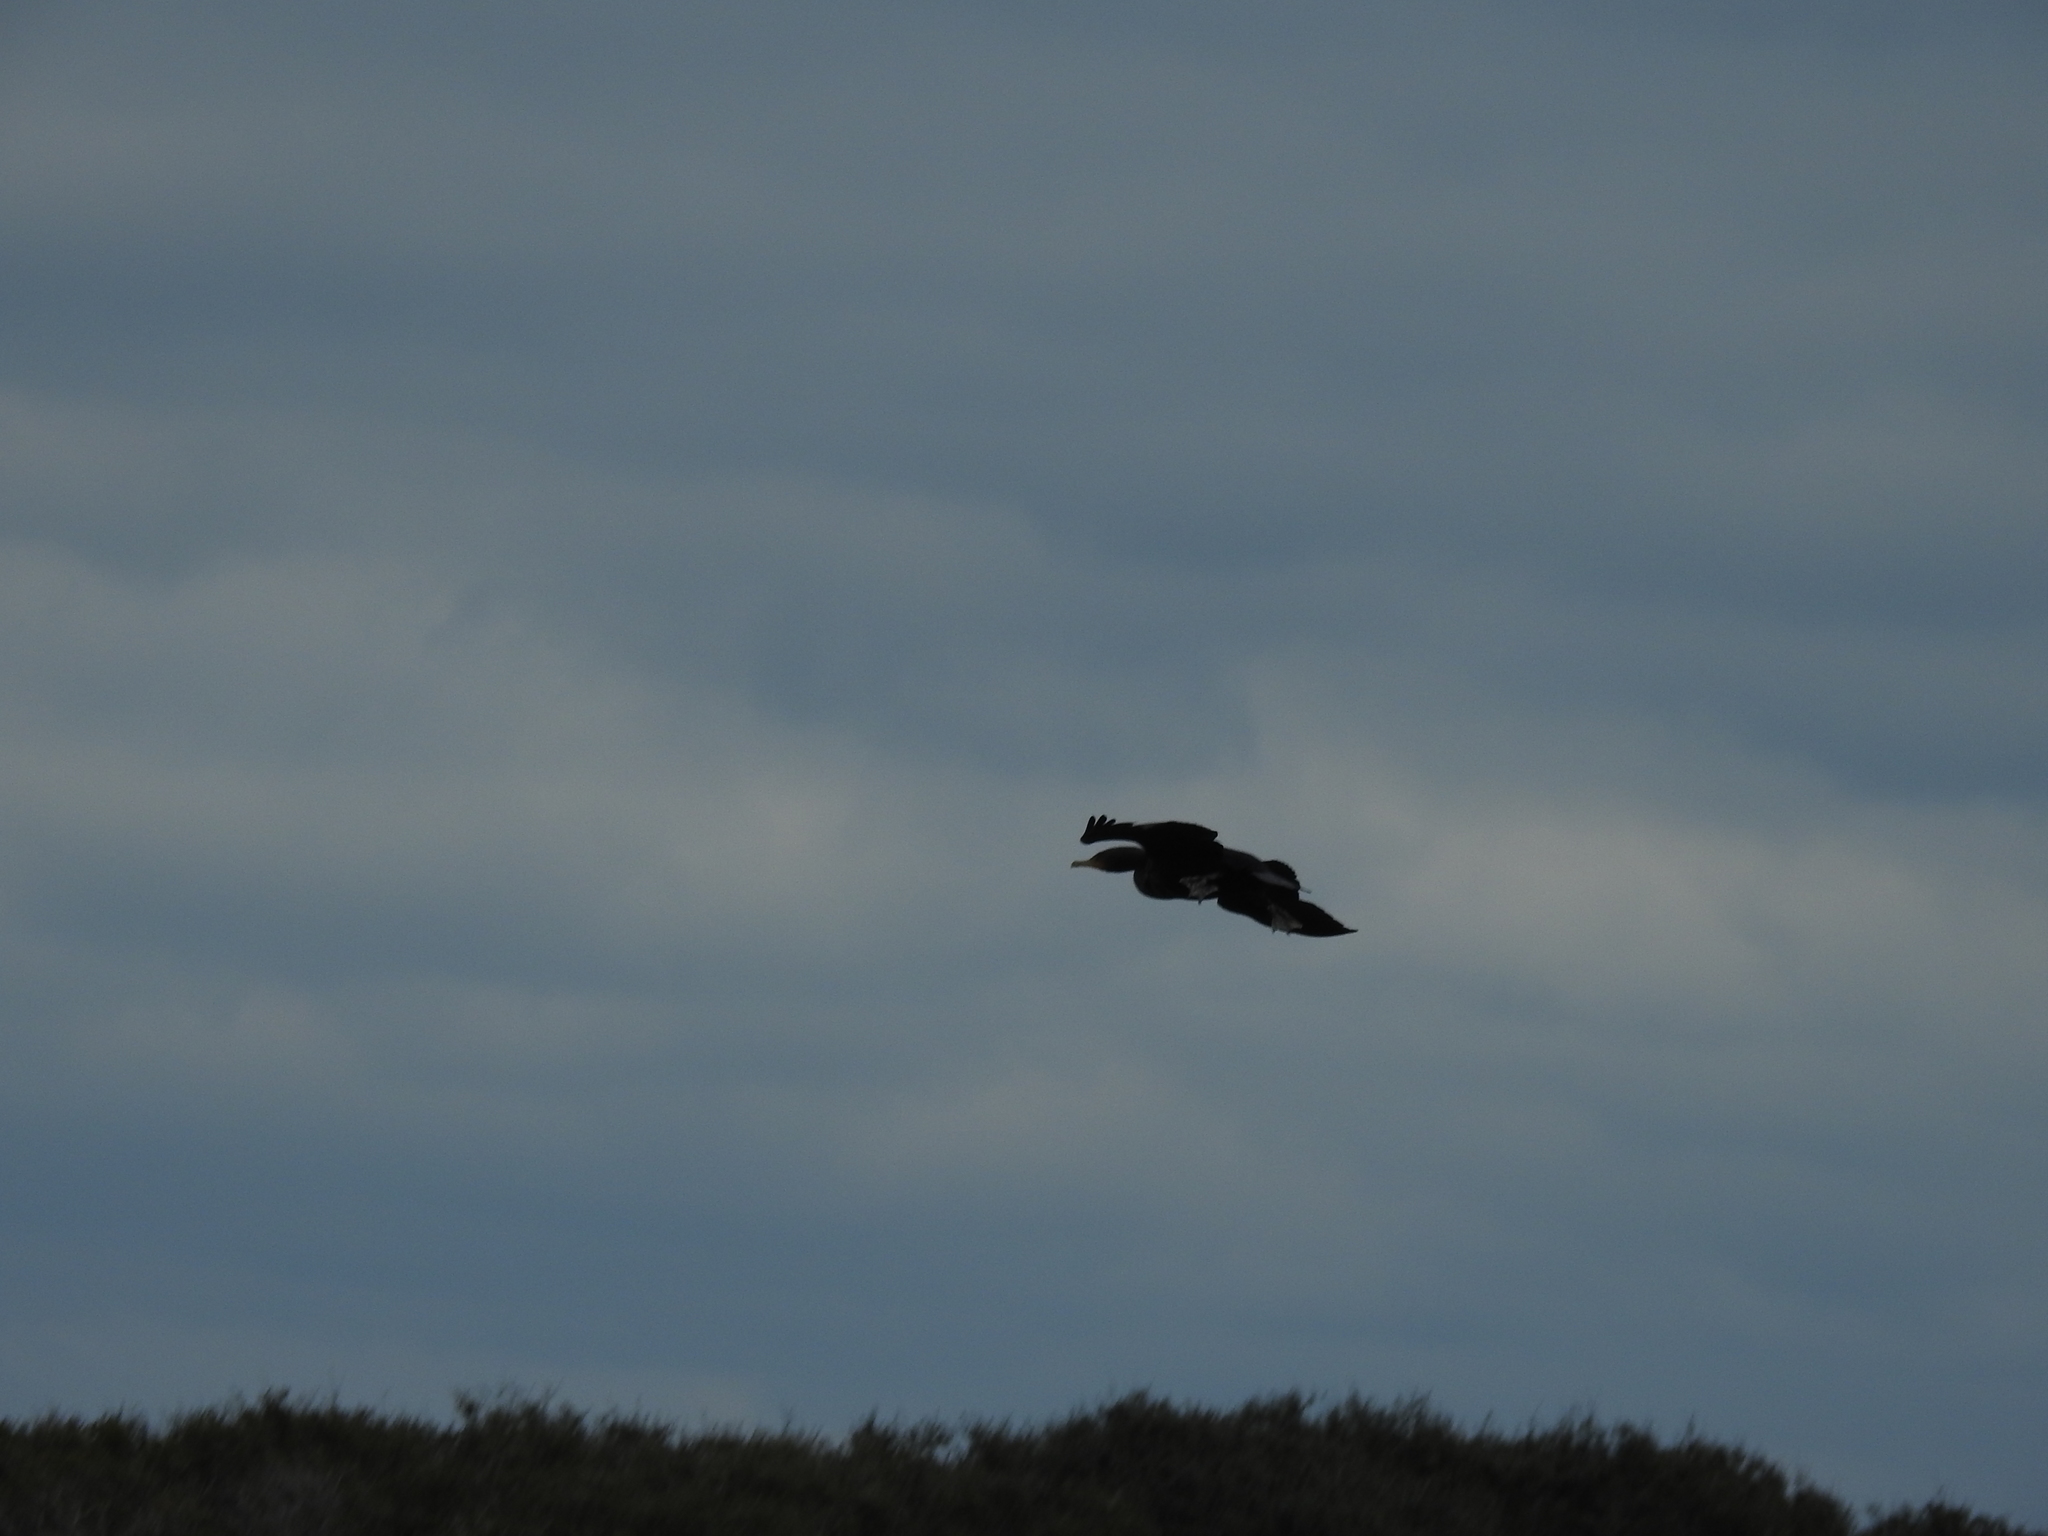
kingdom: Animalia
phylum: Chordata
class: Aves
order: Suliformes
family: Phalacrocoracidae
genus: Phalacrocorax
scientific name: Phalacrocorax auritus
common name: Double-crested cormorant
